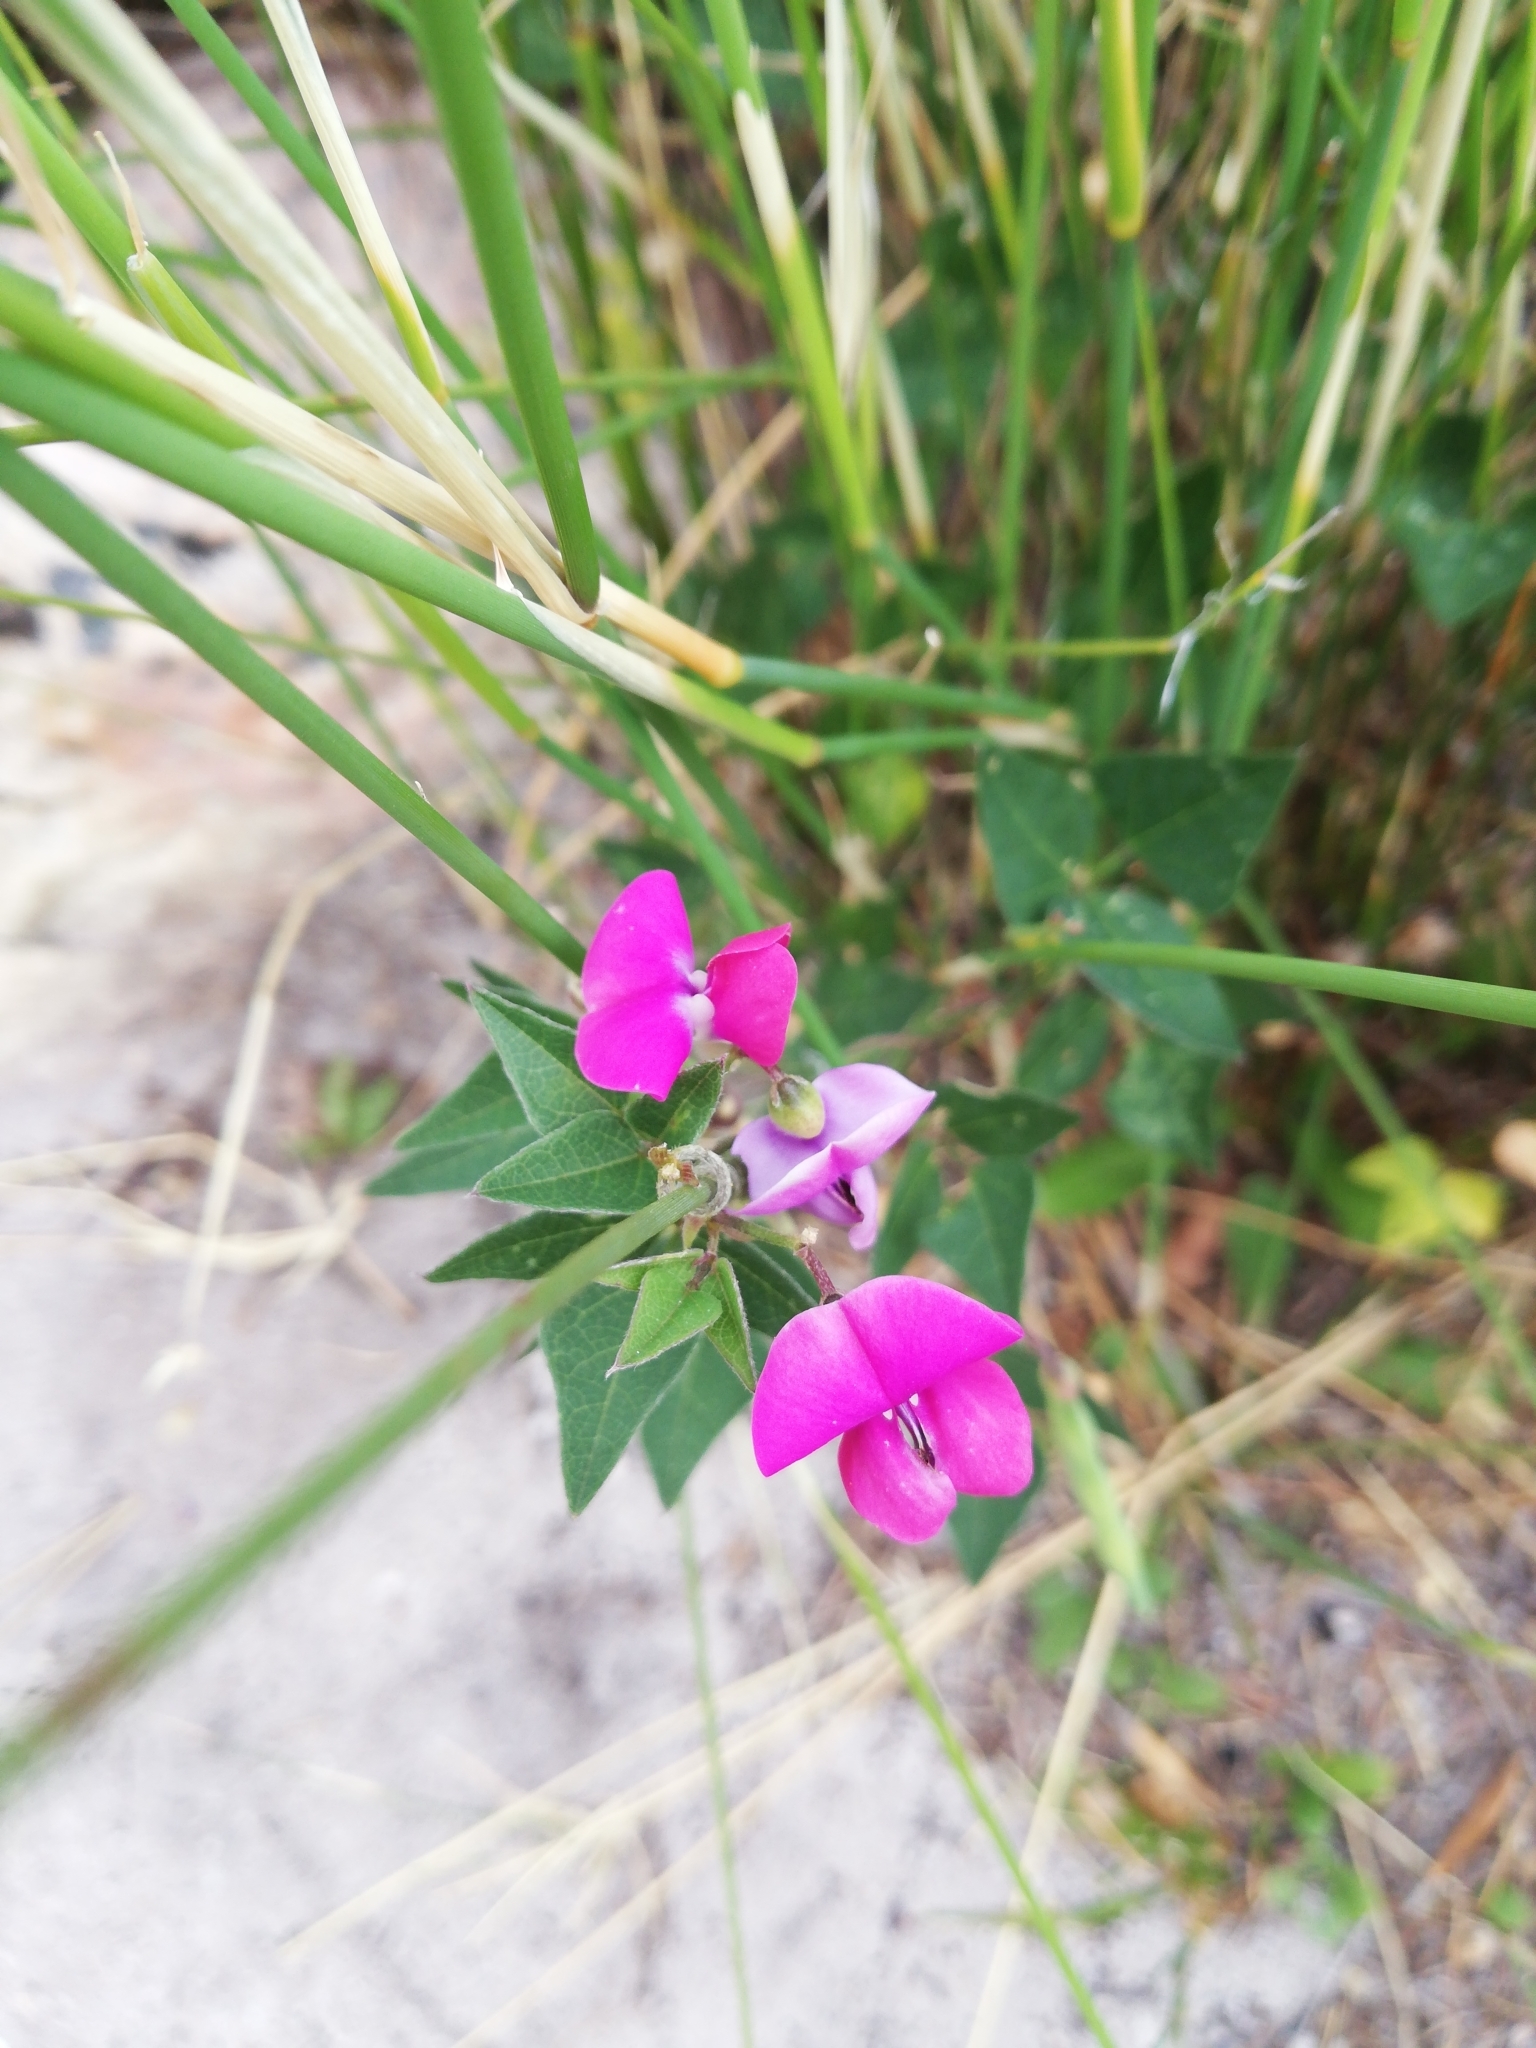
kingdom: Plantae
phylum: Tracheophyta
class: Magnoliopsida
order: Fabales
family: Fabaceae
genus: Dipogon
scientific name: Dipogon lignosus
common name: Okie bean
